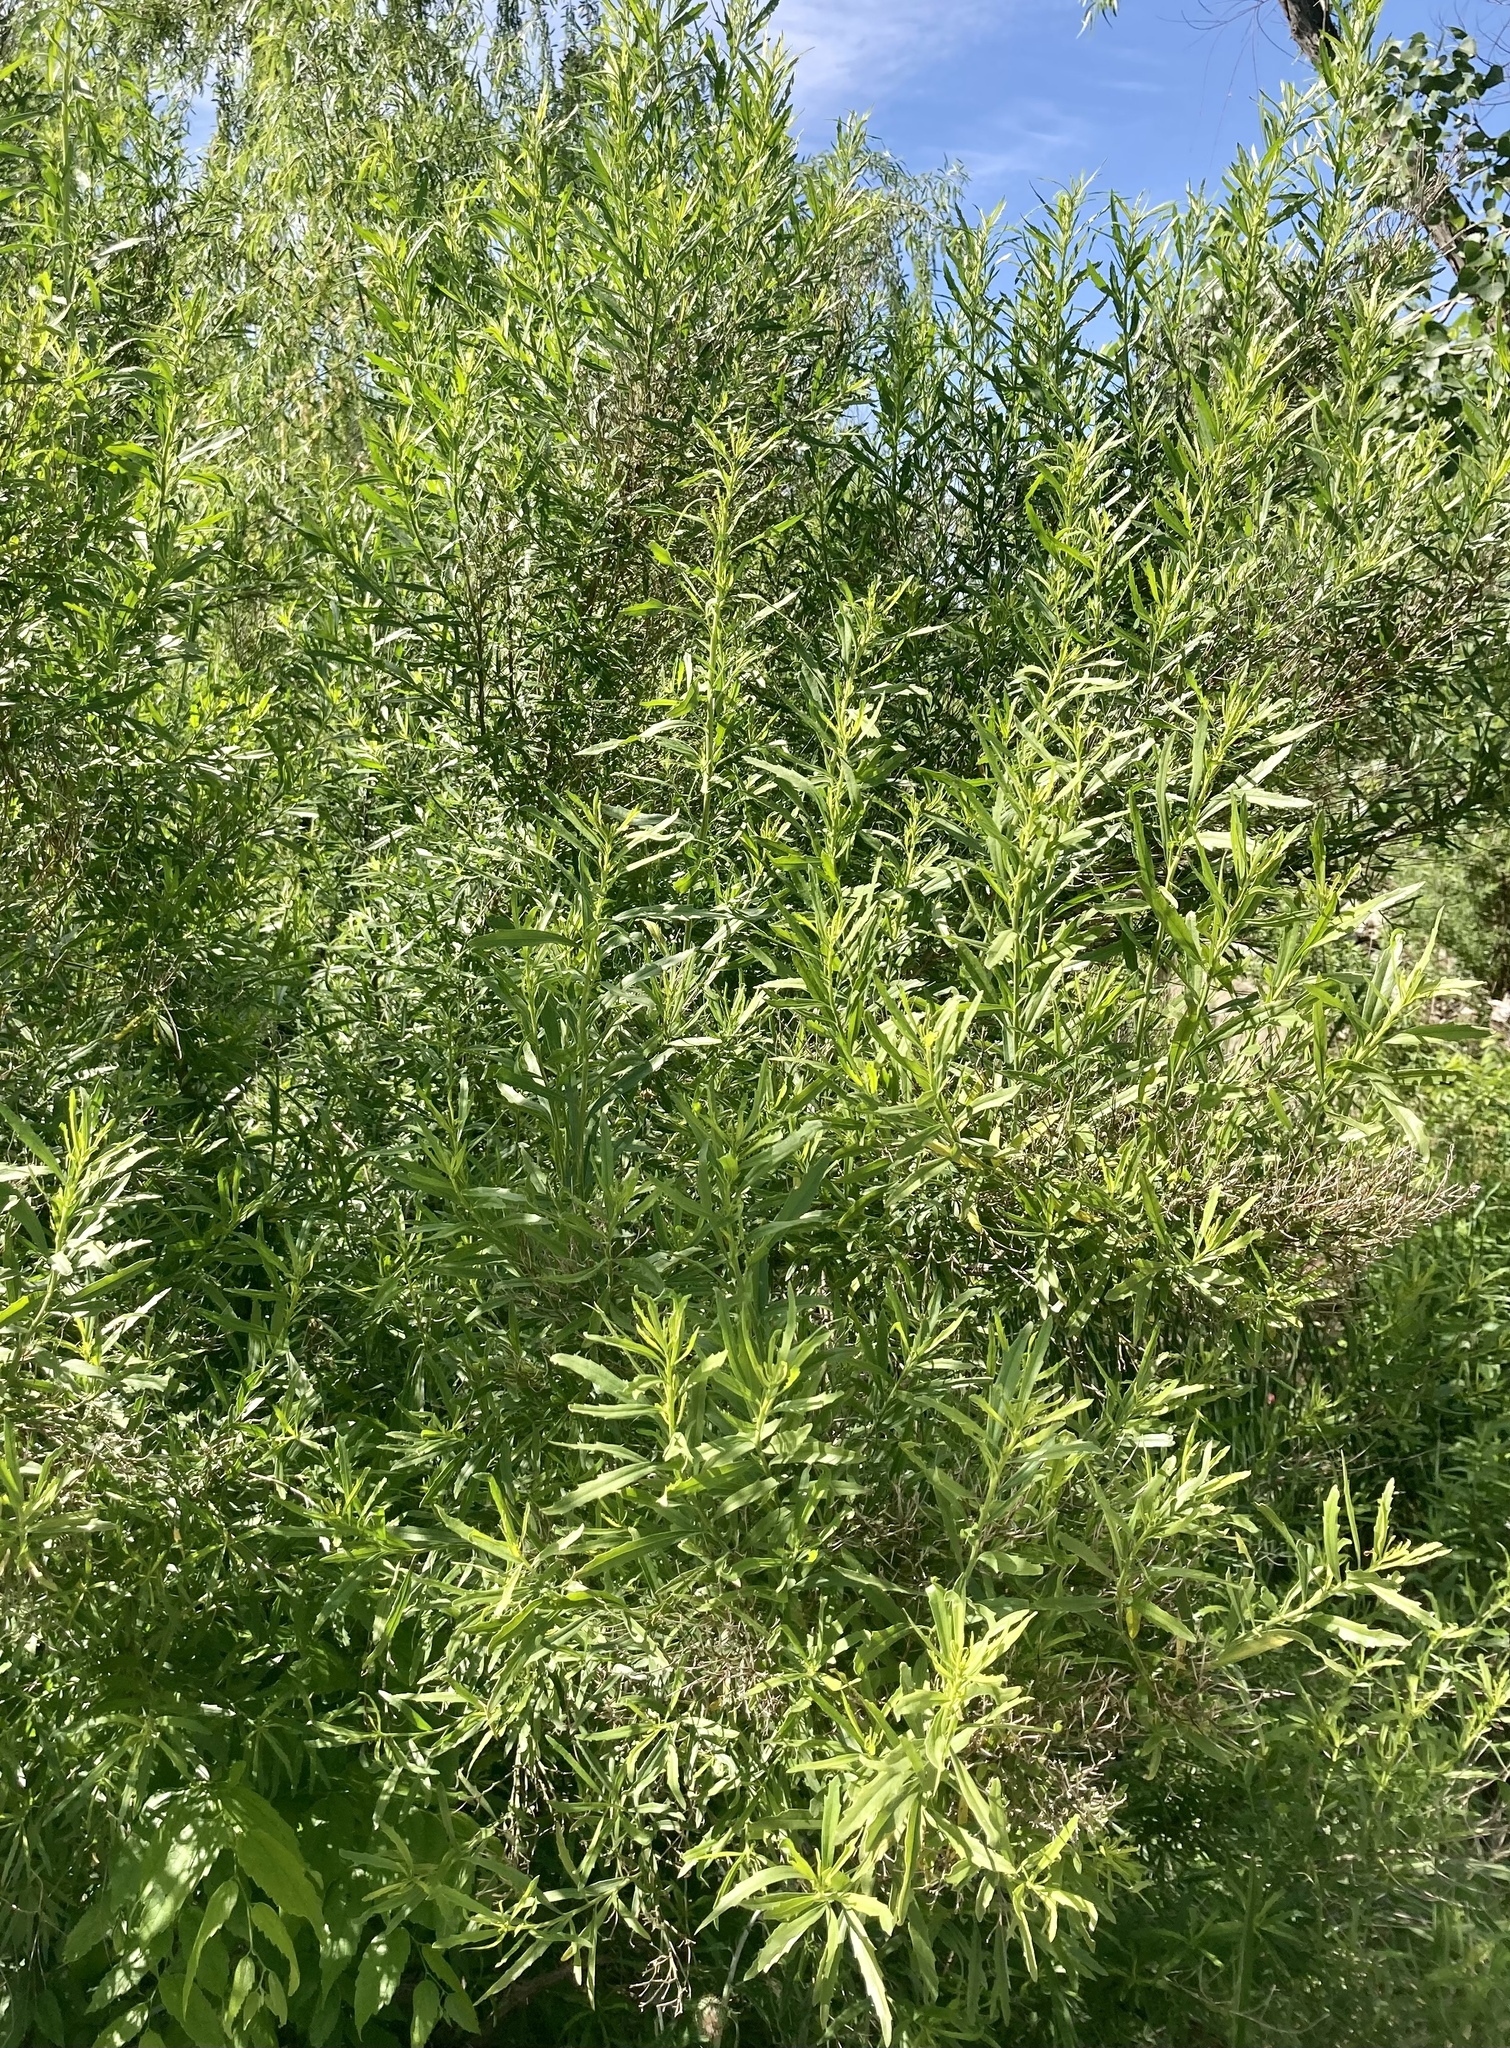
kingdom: Plantae
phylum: Tracheophyta
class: Magnoliopsida
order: Asterales
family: Asteraceae
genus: Baccharis
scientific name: Baccharis neglecta
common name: Roosevelt-weed
